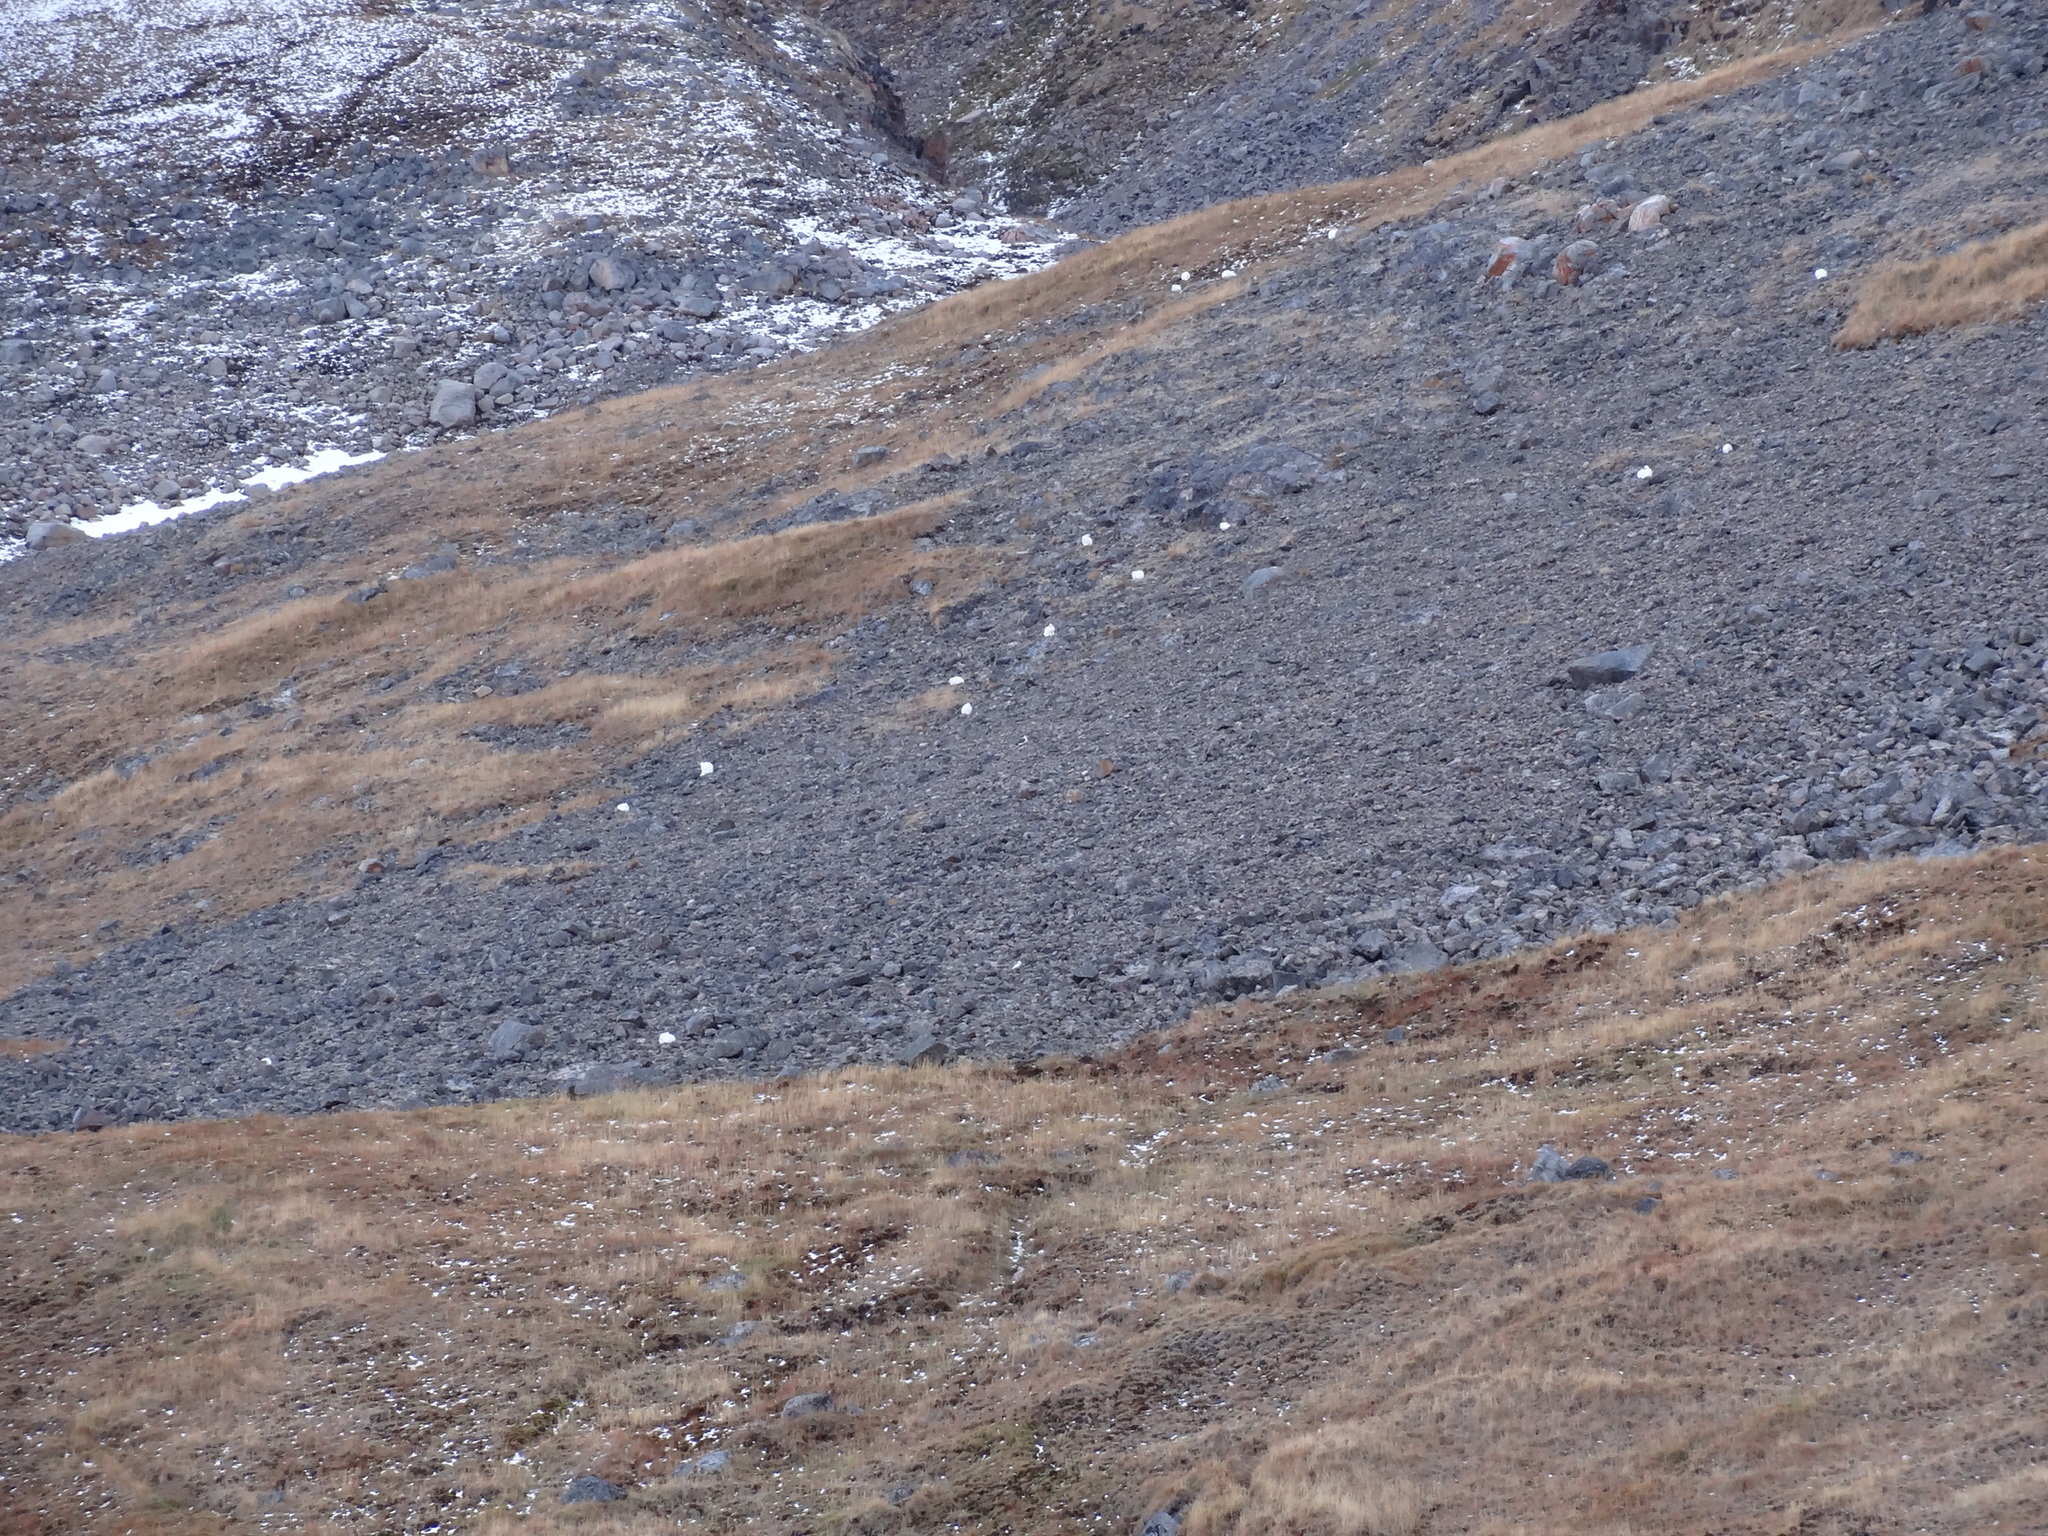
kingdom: Animalia
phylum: Chordata
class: Mammalia
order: Lagomorpha
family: Leporidae
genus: Lepus
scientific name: Lepus arcticus
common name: Arctic hare
